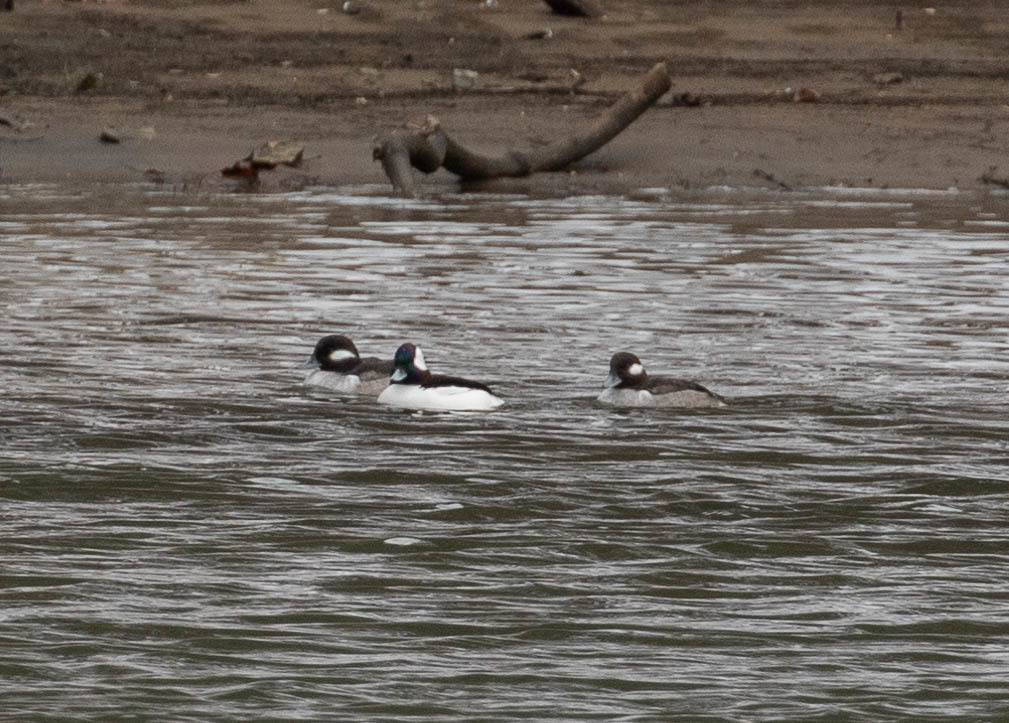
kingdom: Animalia
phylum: Chordata
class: Aves
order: Anseriformes
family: Anatidae
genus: Bucephala
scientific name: Bucephala albeola
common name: Bufflehead
